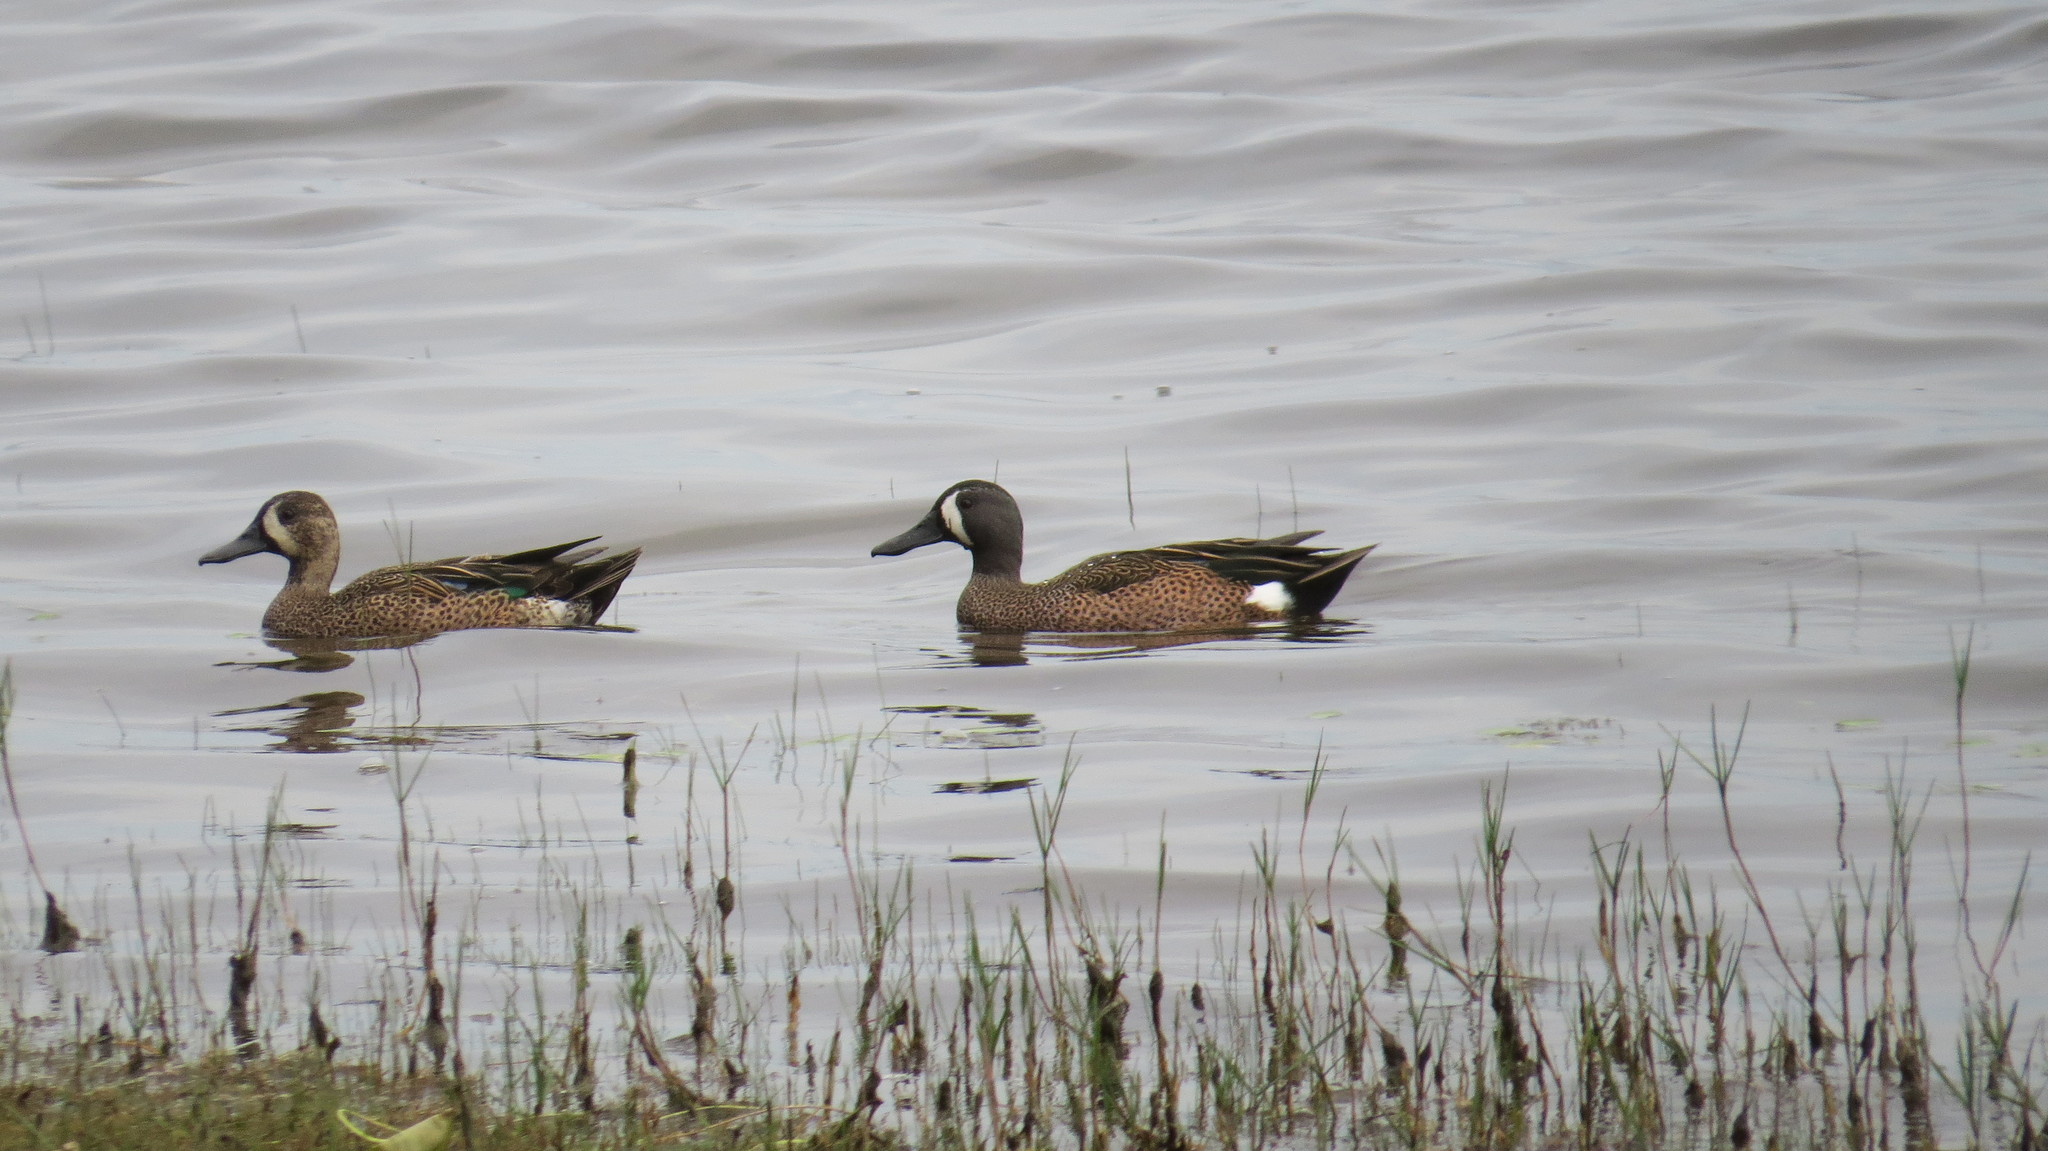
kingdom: Animalia
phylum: Chordata
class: Aves
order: Anseriformes
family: Anatidae
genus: Spatula
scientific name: Spatula discors
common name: Blue-winged teal
